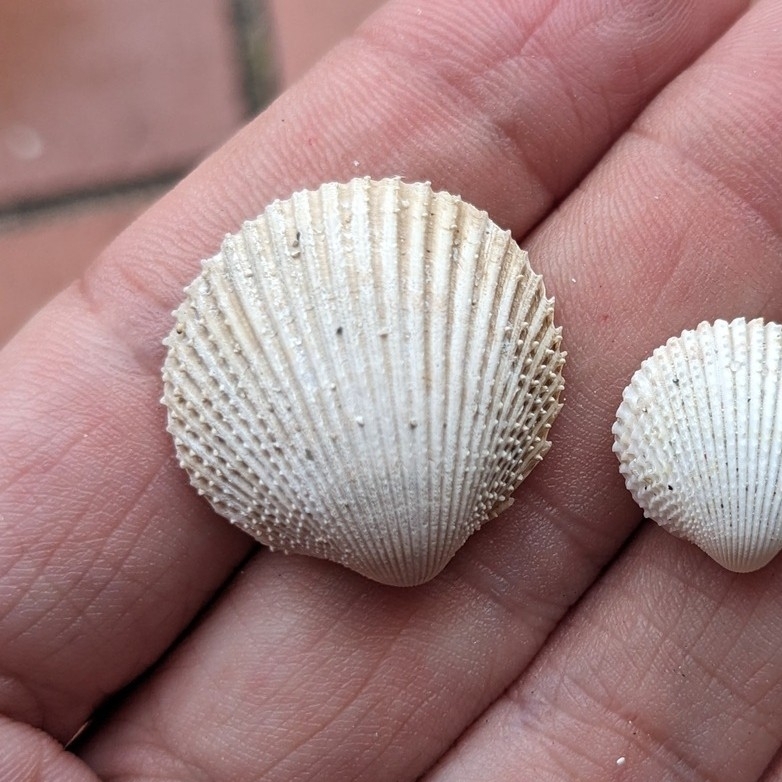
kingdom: Animalia
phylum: Mollusca
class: Bivalvia
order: Cardiida
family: Cardiidae
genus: Dallocardia
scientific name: Dallocardia muricata
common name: Yellow pricklycockle
